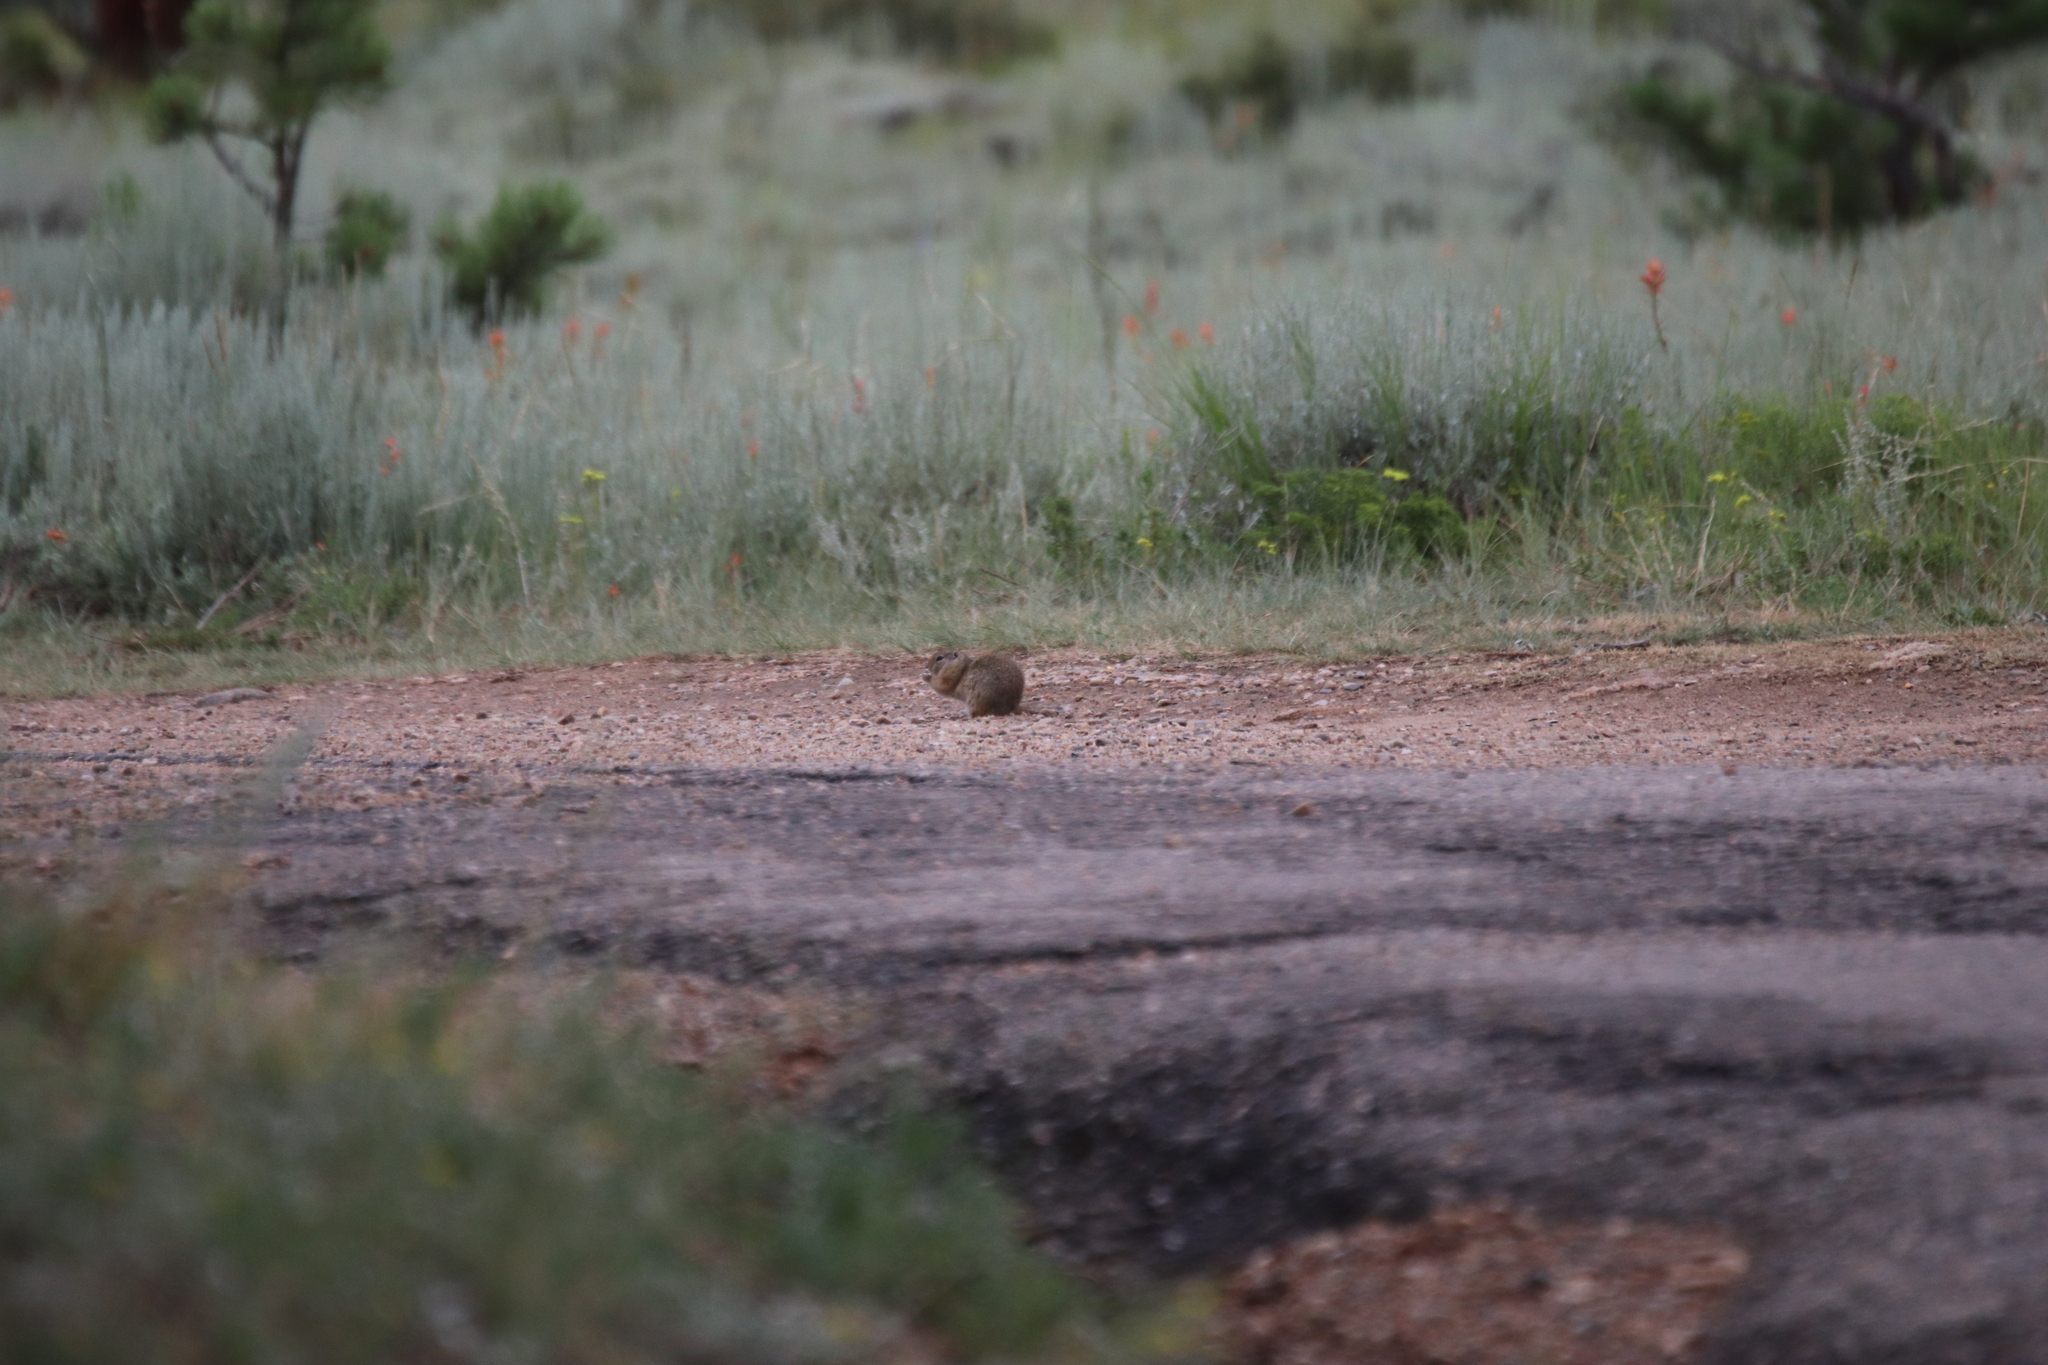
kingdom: Animalia
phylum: Chordata
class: Mammalia
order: Rodentia
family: Sciuridae
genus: Urocitellus
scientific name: Urocitellus elegans
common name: Wyoming ground squirrel
